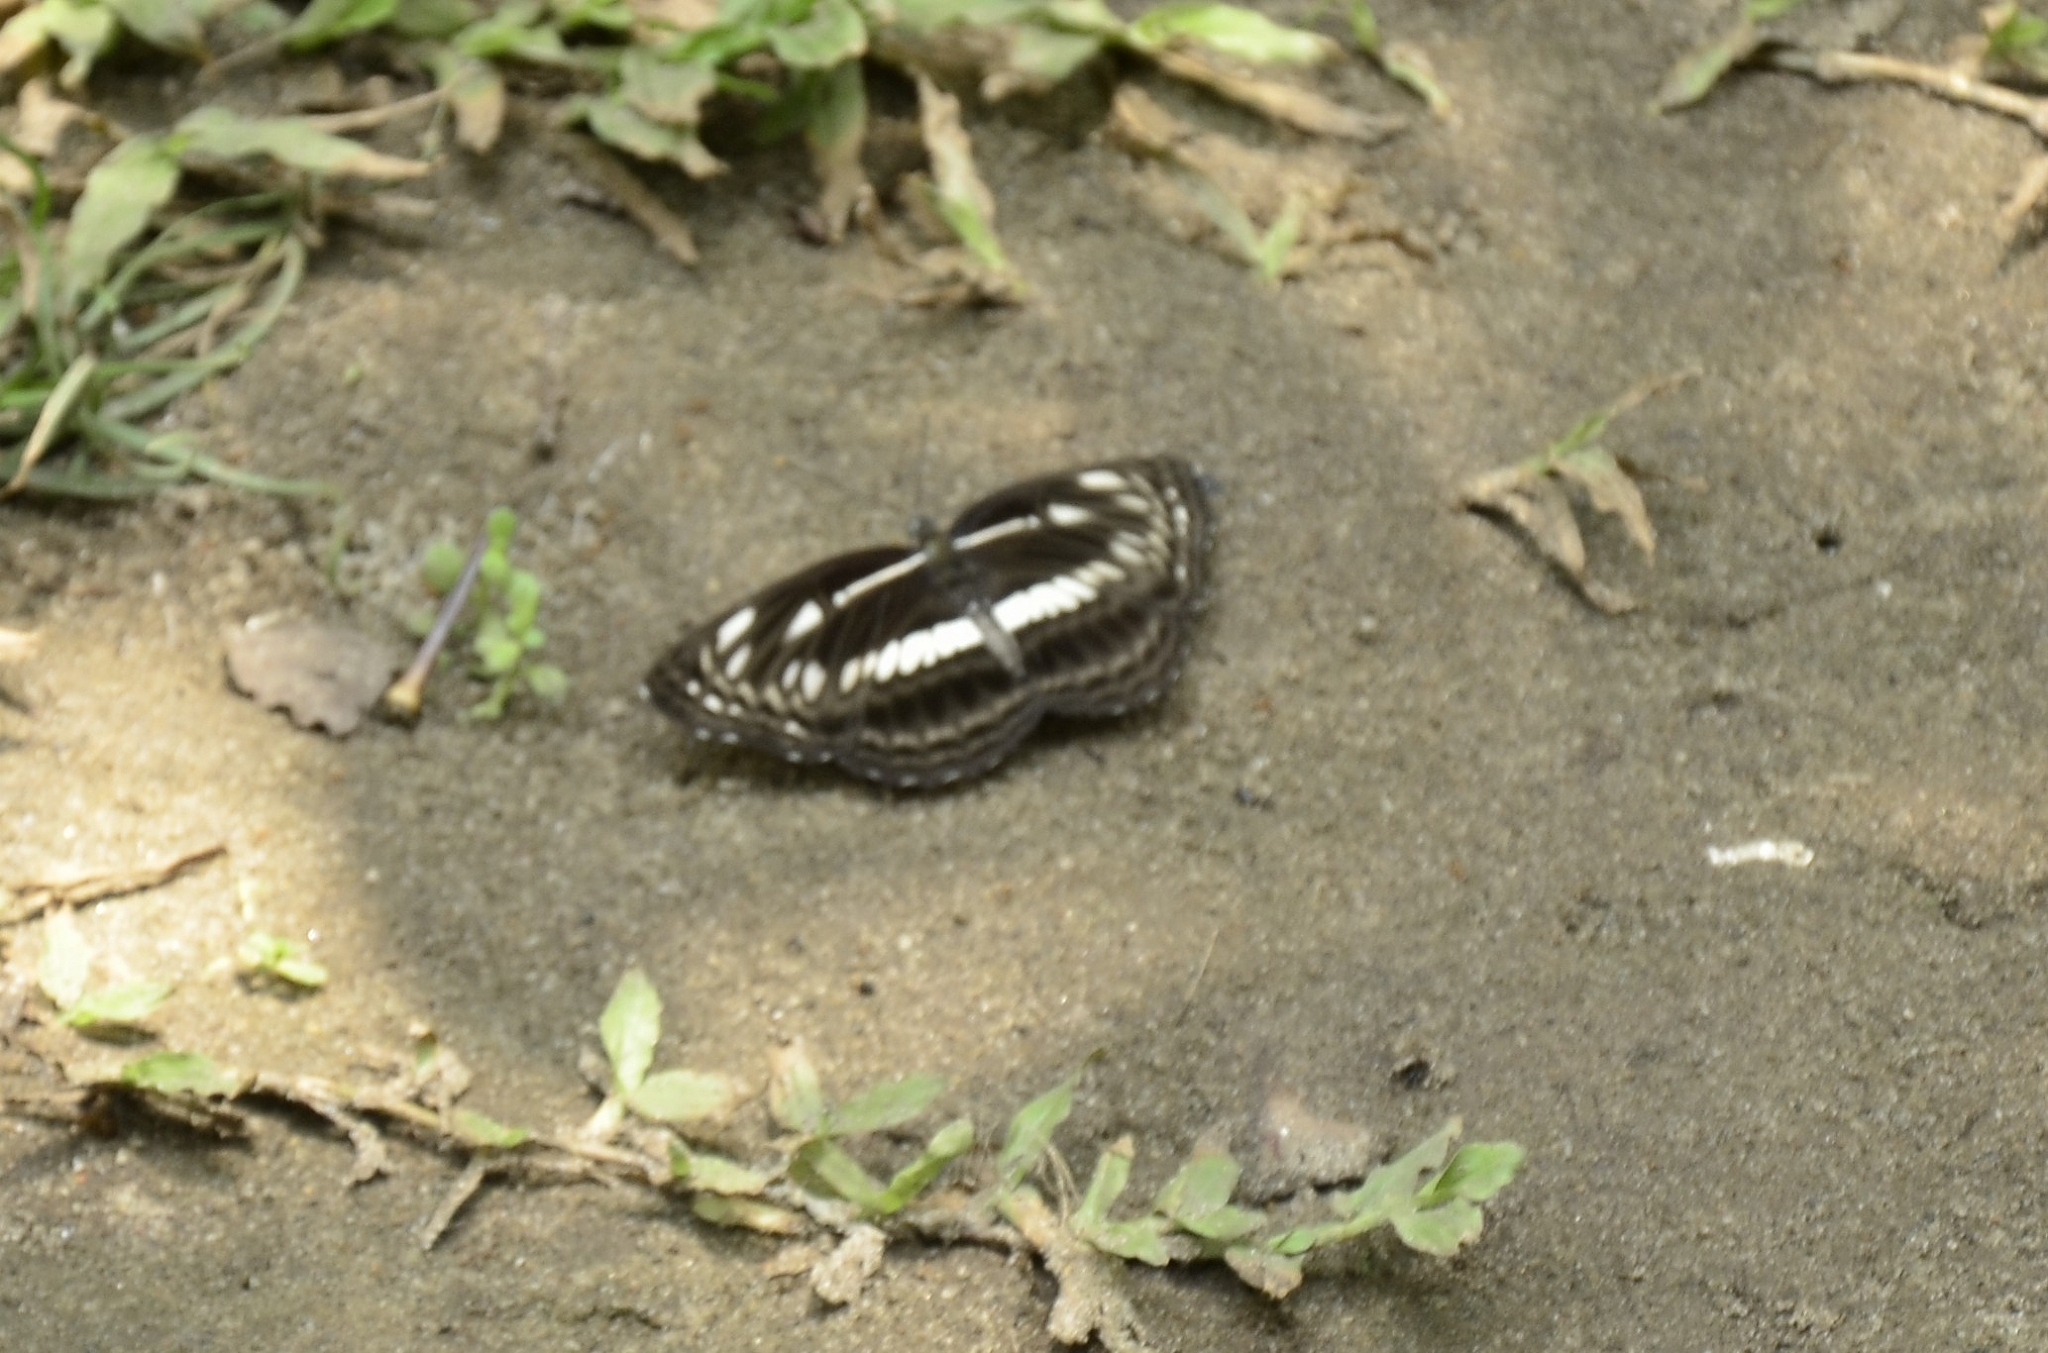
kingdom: Animalia
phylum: Arthropoda
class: Insecta
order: Lepidoptera
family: Nymphalidae
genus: Neptis
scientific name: Neptis jumbah
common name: Chestnut-streaked sailer
